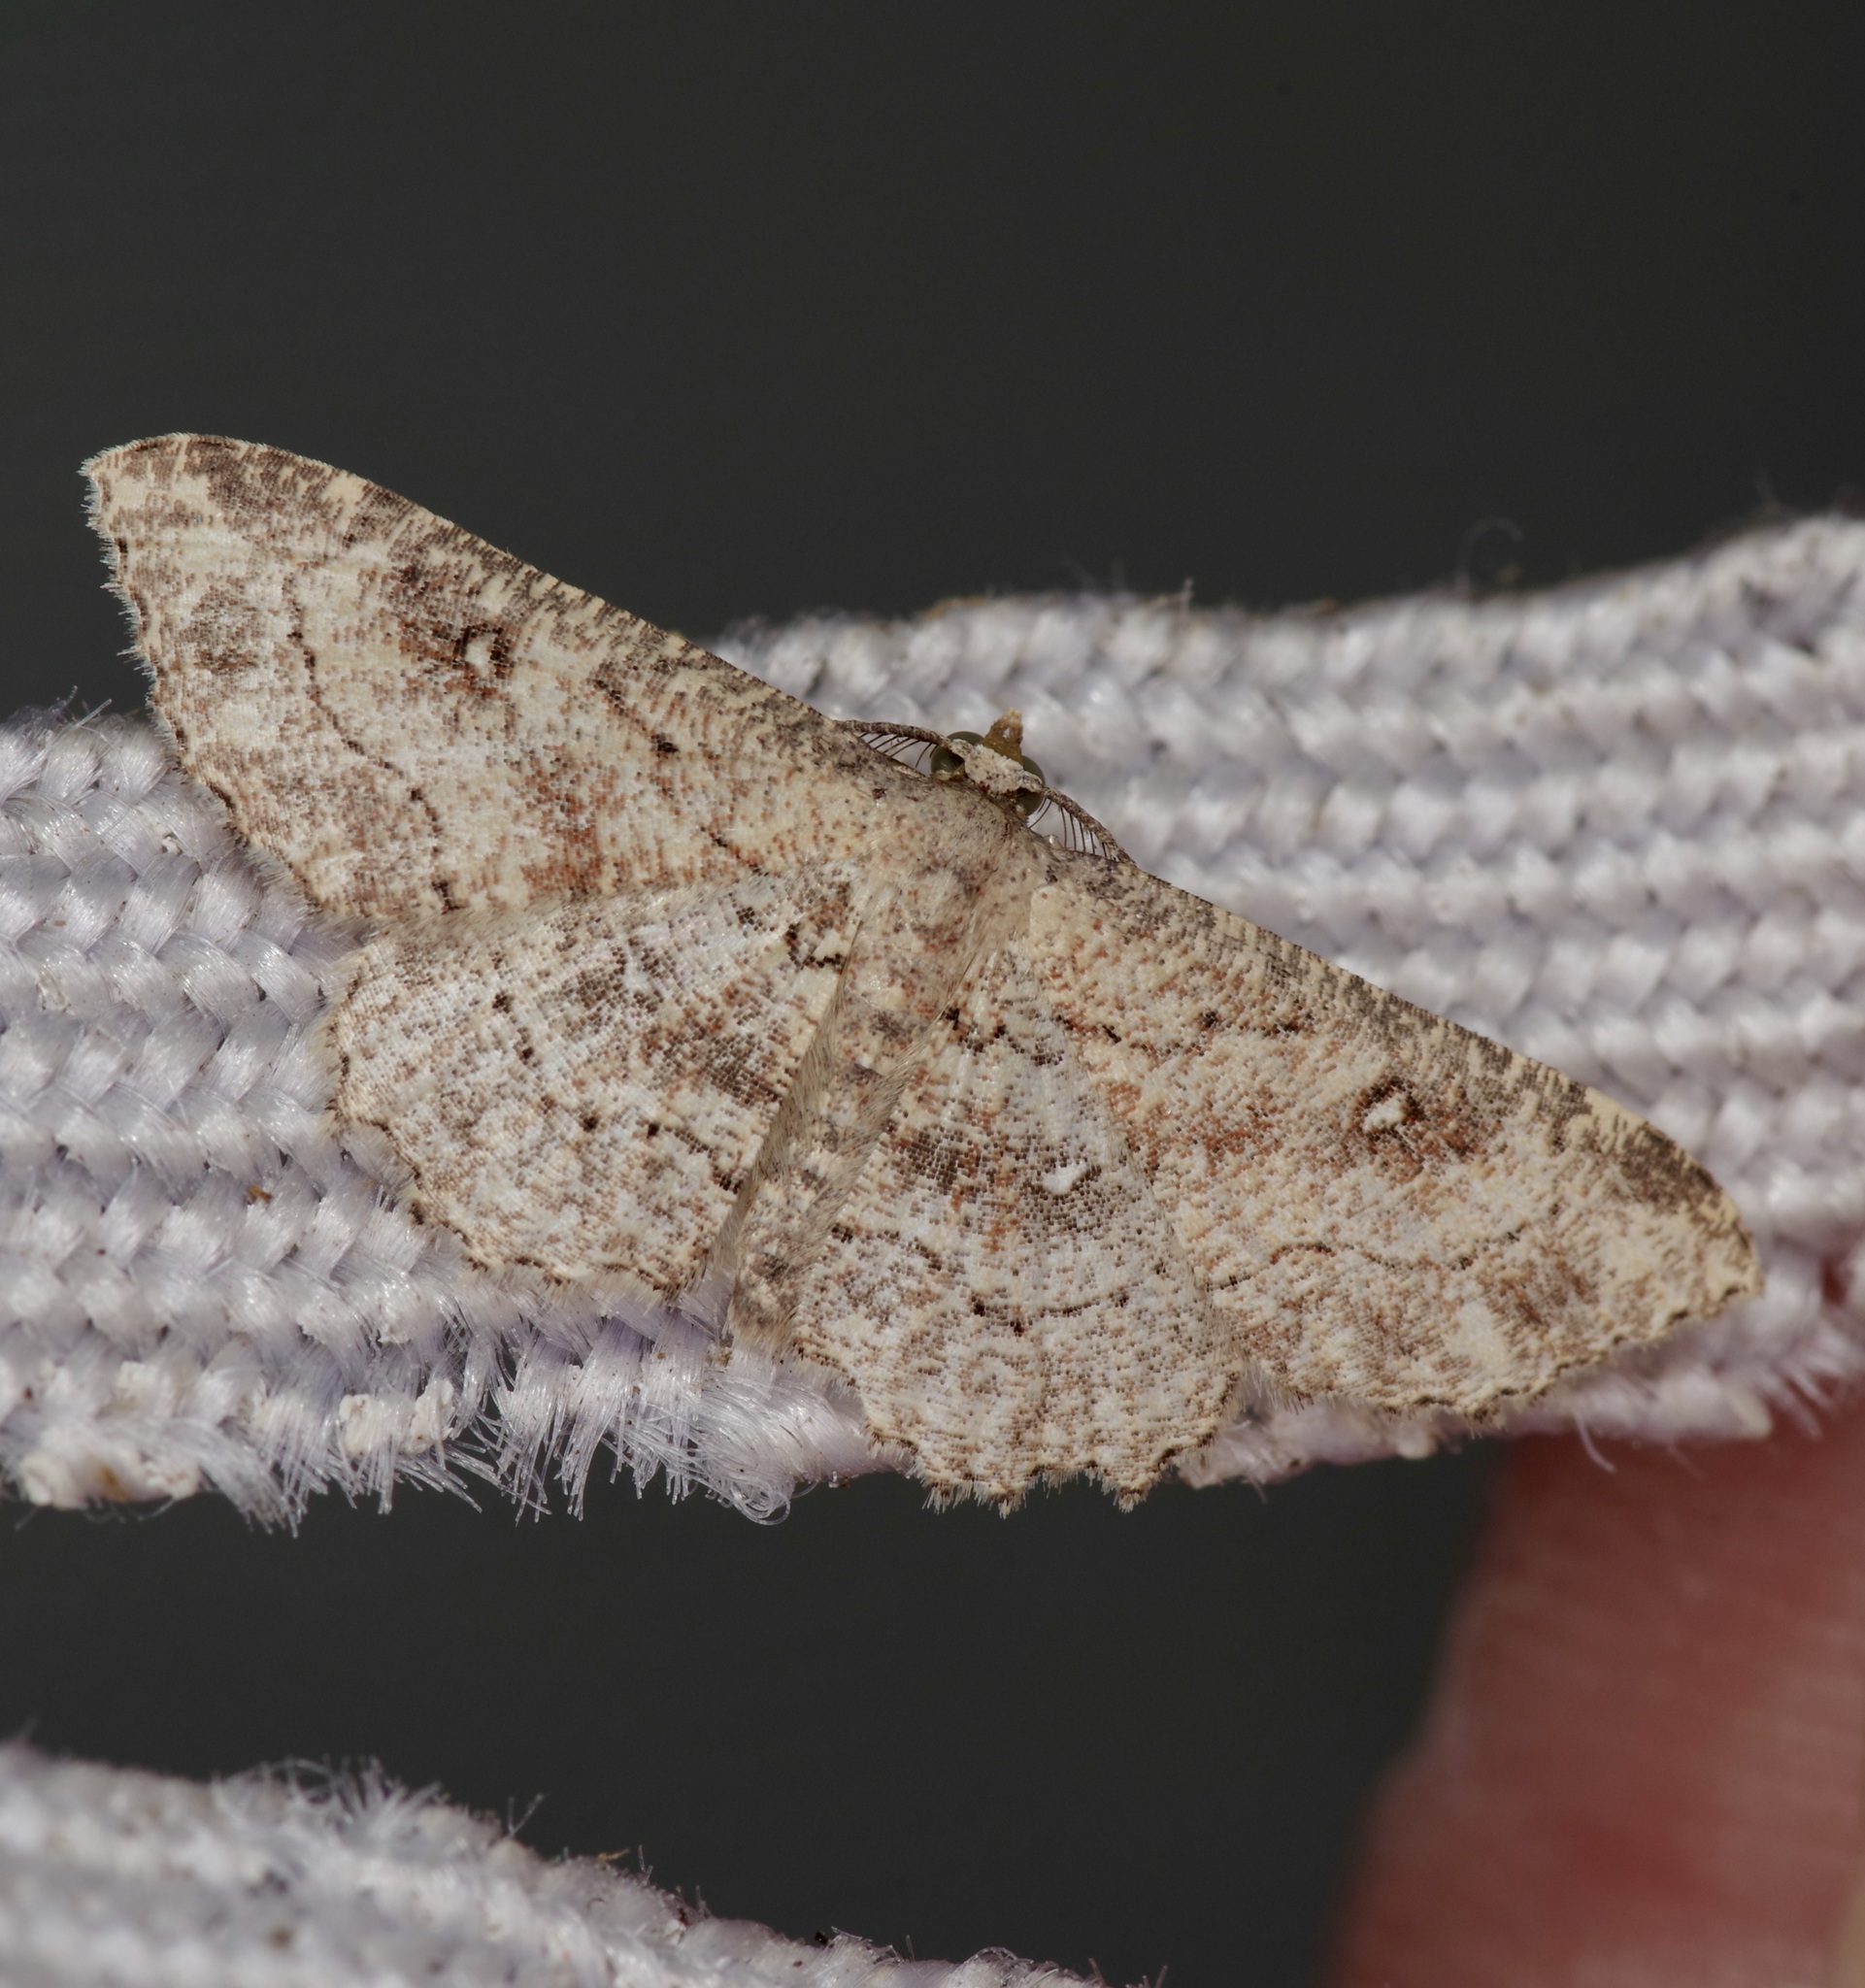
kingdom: Animalia
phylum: Arthropoda
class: Insecta
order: Lepidoptera
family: Geometridae
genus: Cyclophora
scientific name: Cyclophora nanaria
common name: Cankerworm
